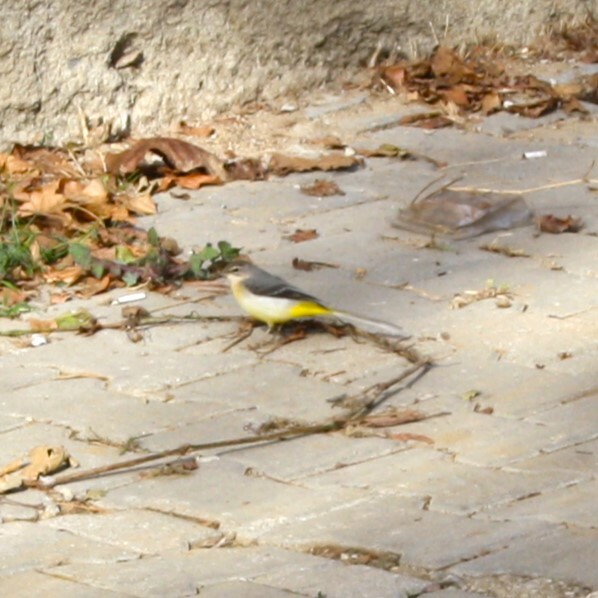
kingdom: Animalia
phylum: Chordata
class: Aves
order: Passeriformes
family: Motacillidae
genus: Motacilla
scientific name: Motacilla cinerea
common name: Grey wagtail
